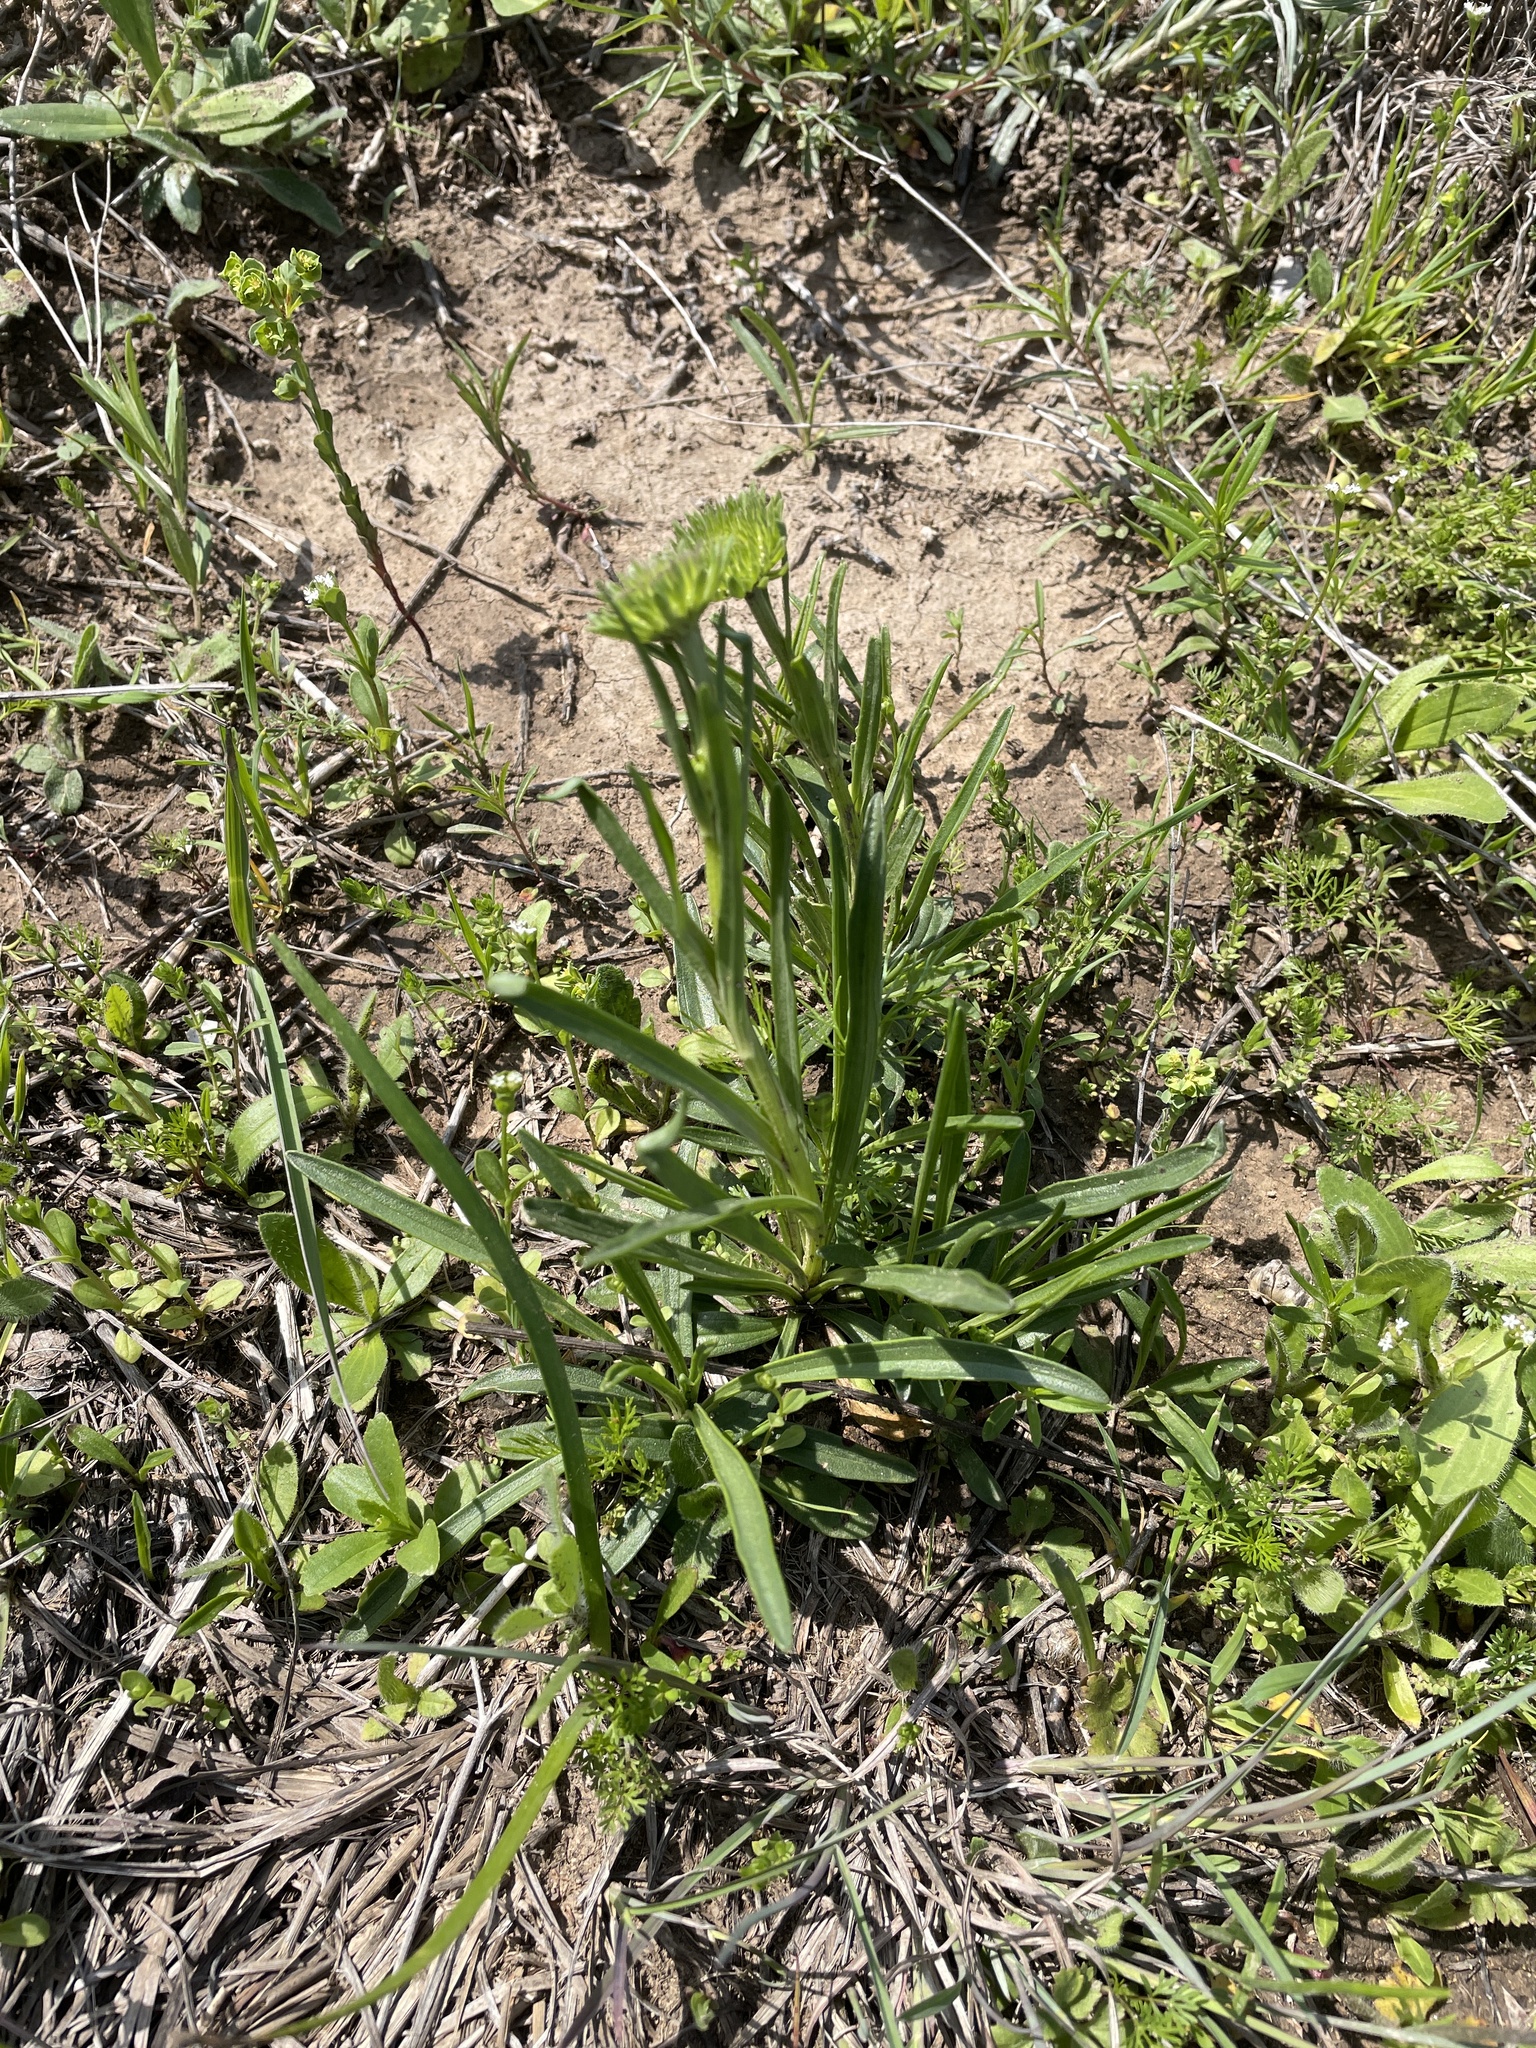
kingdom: Plantae
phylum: Tracheophyta
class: Magnoliopsida
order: Asterales
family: Asteraceae
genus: Marshallia
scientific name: Marshallia caespitosa
